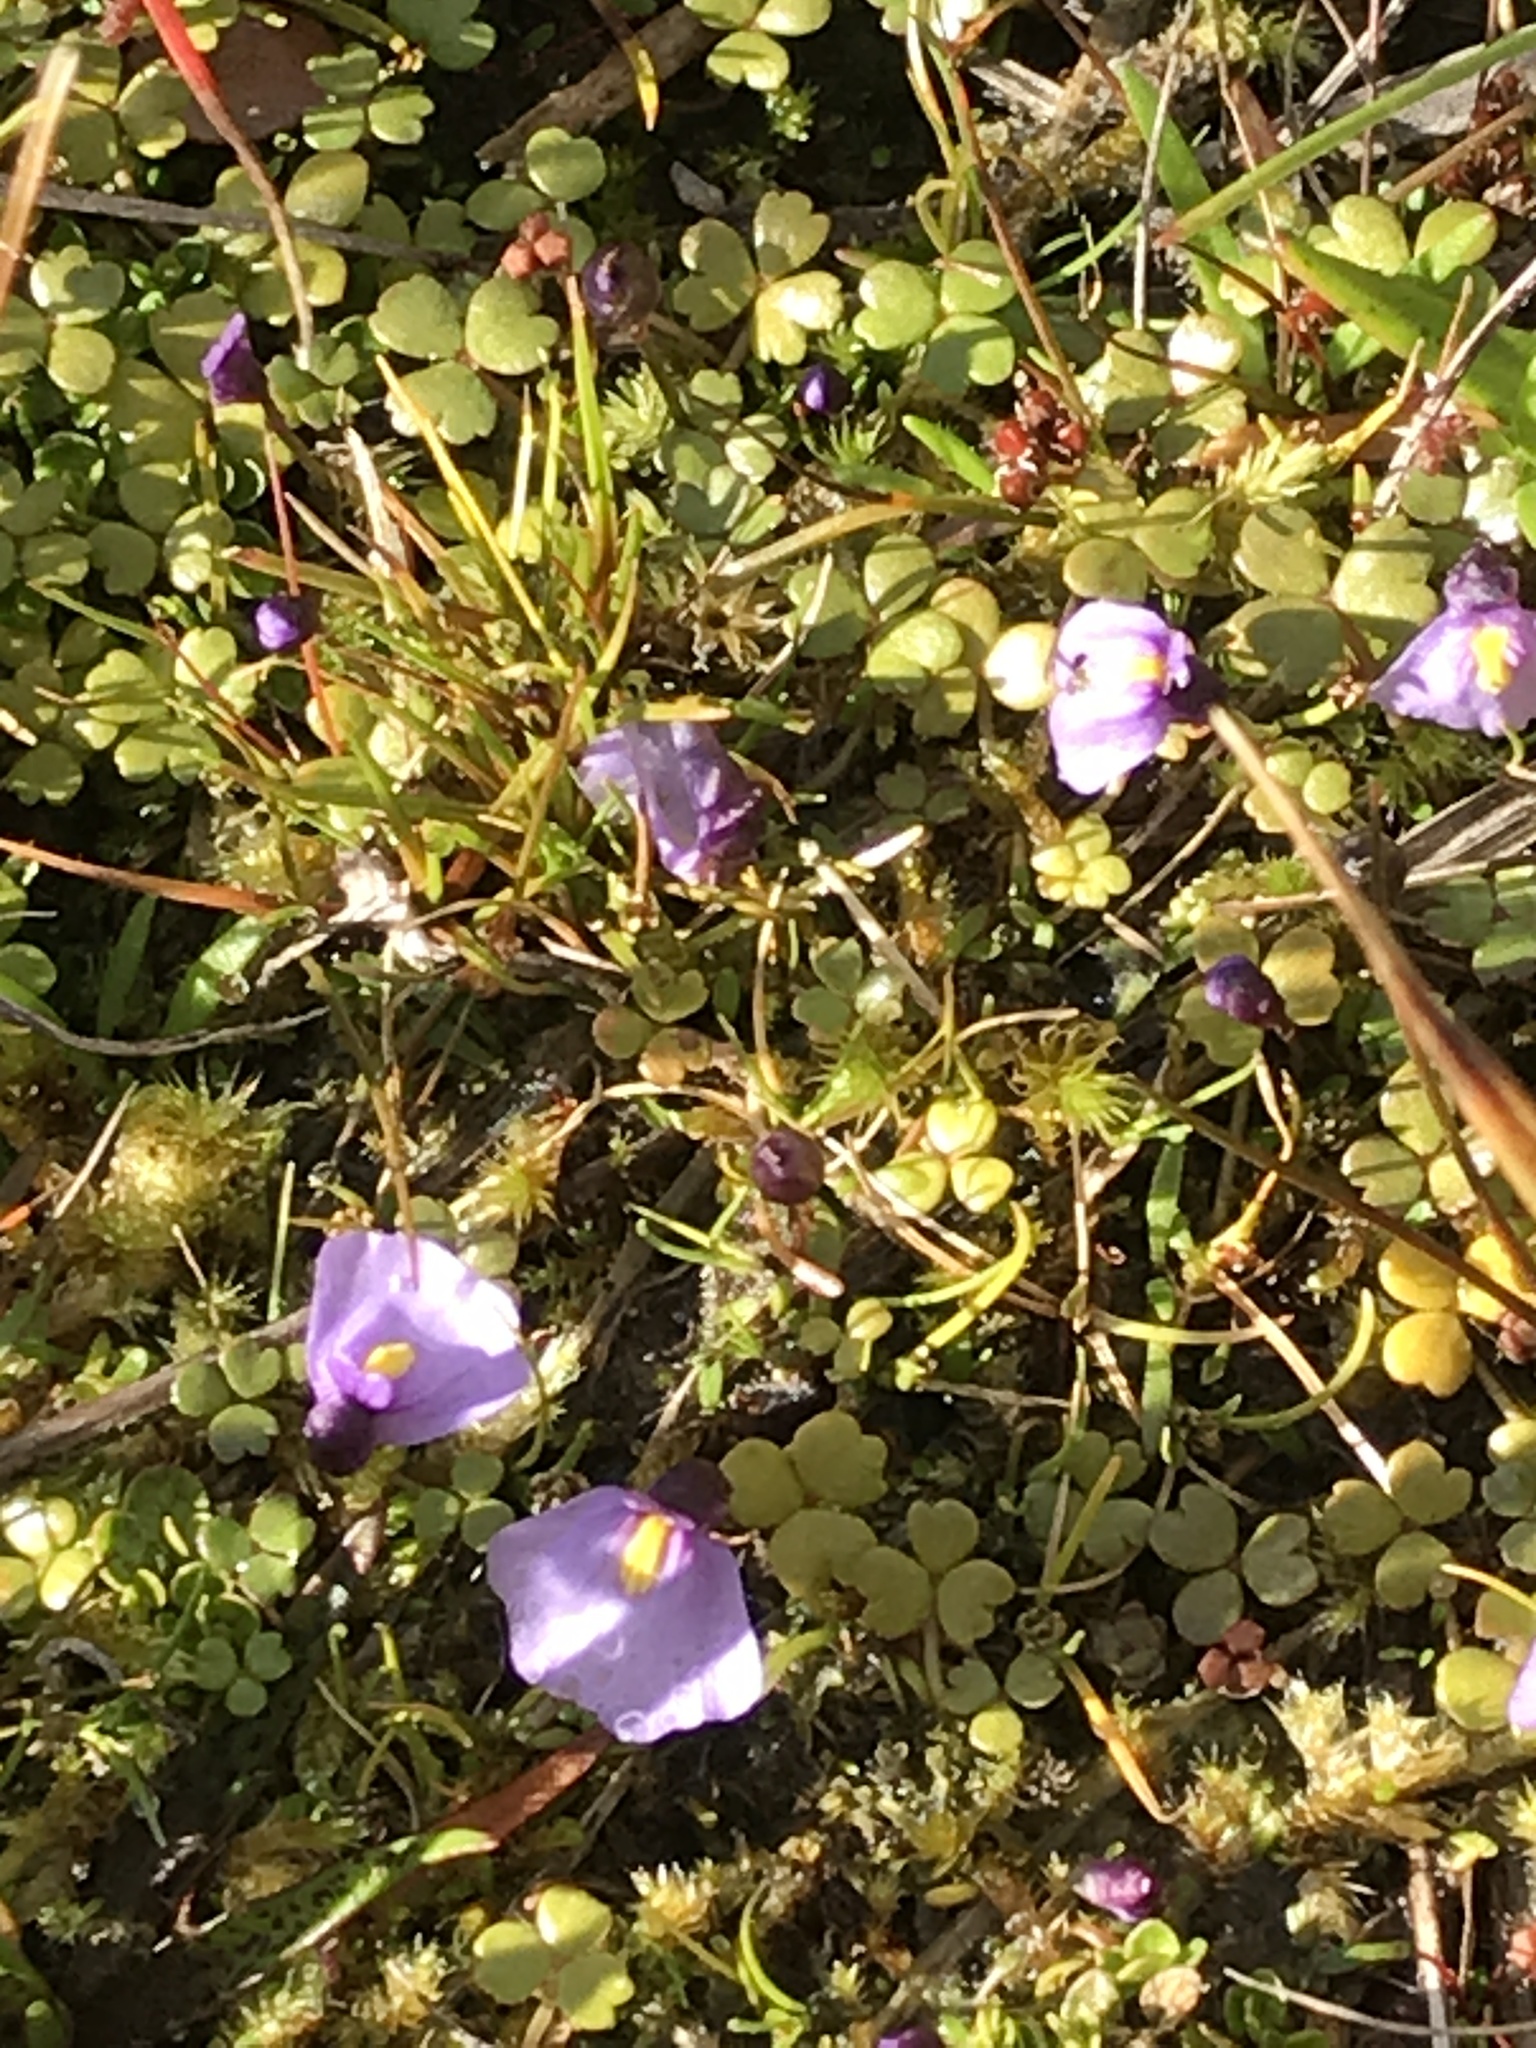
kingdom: Plantae
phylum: Tracheophyta
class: Magnoliopsida
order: Lamiales
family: Lentibulariaceae
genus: Utricularia
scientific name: Utricularia dichotoma
